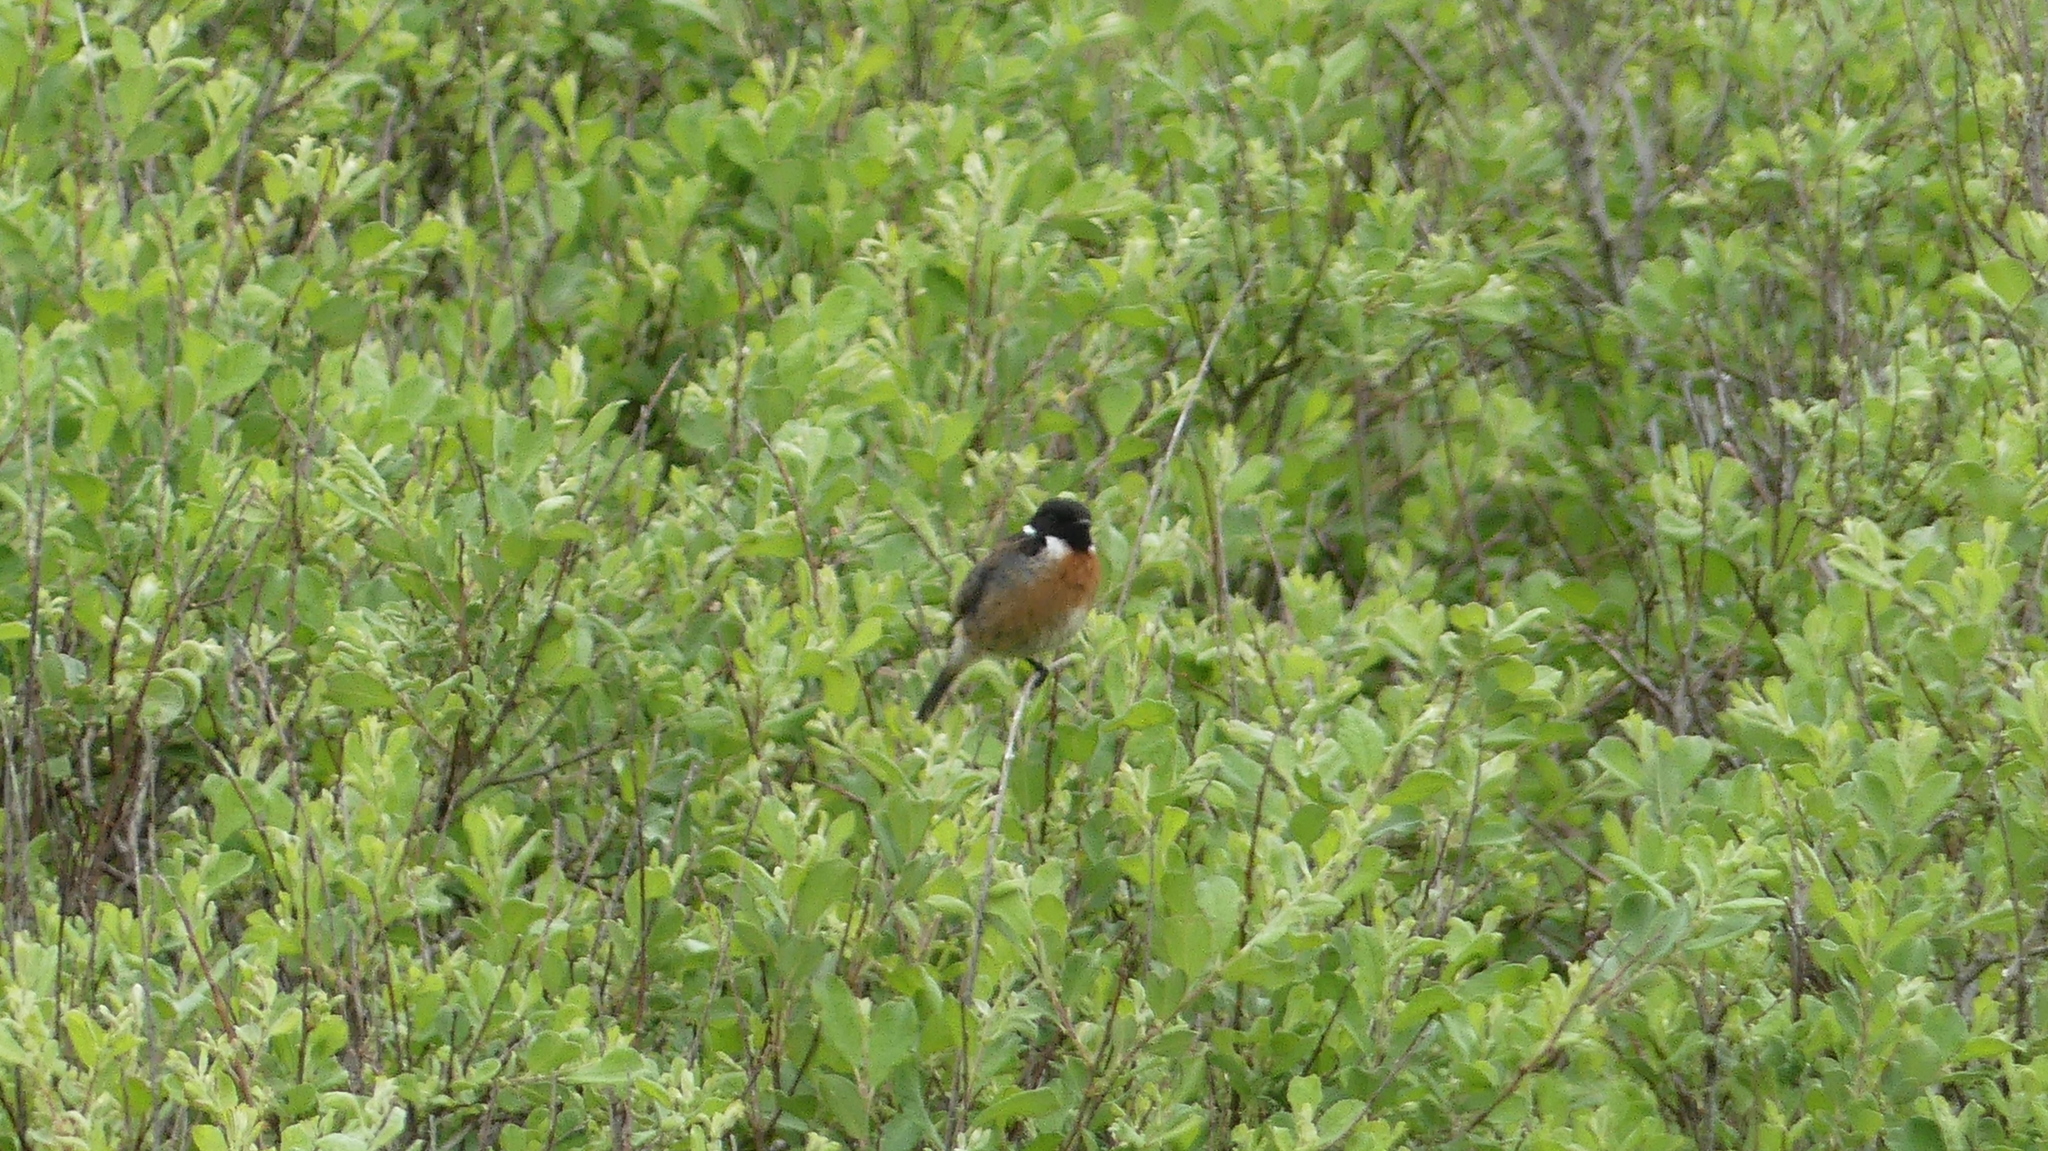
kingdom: Animalia
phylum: Chordata
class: Aves
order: Passeriformes
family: Muscicapidae
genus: Saxicola
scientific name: Saxicola rubicola
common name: European stonechat
